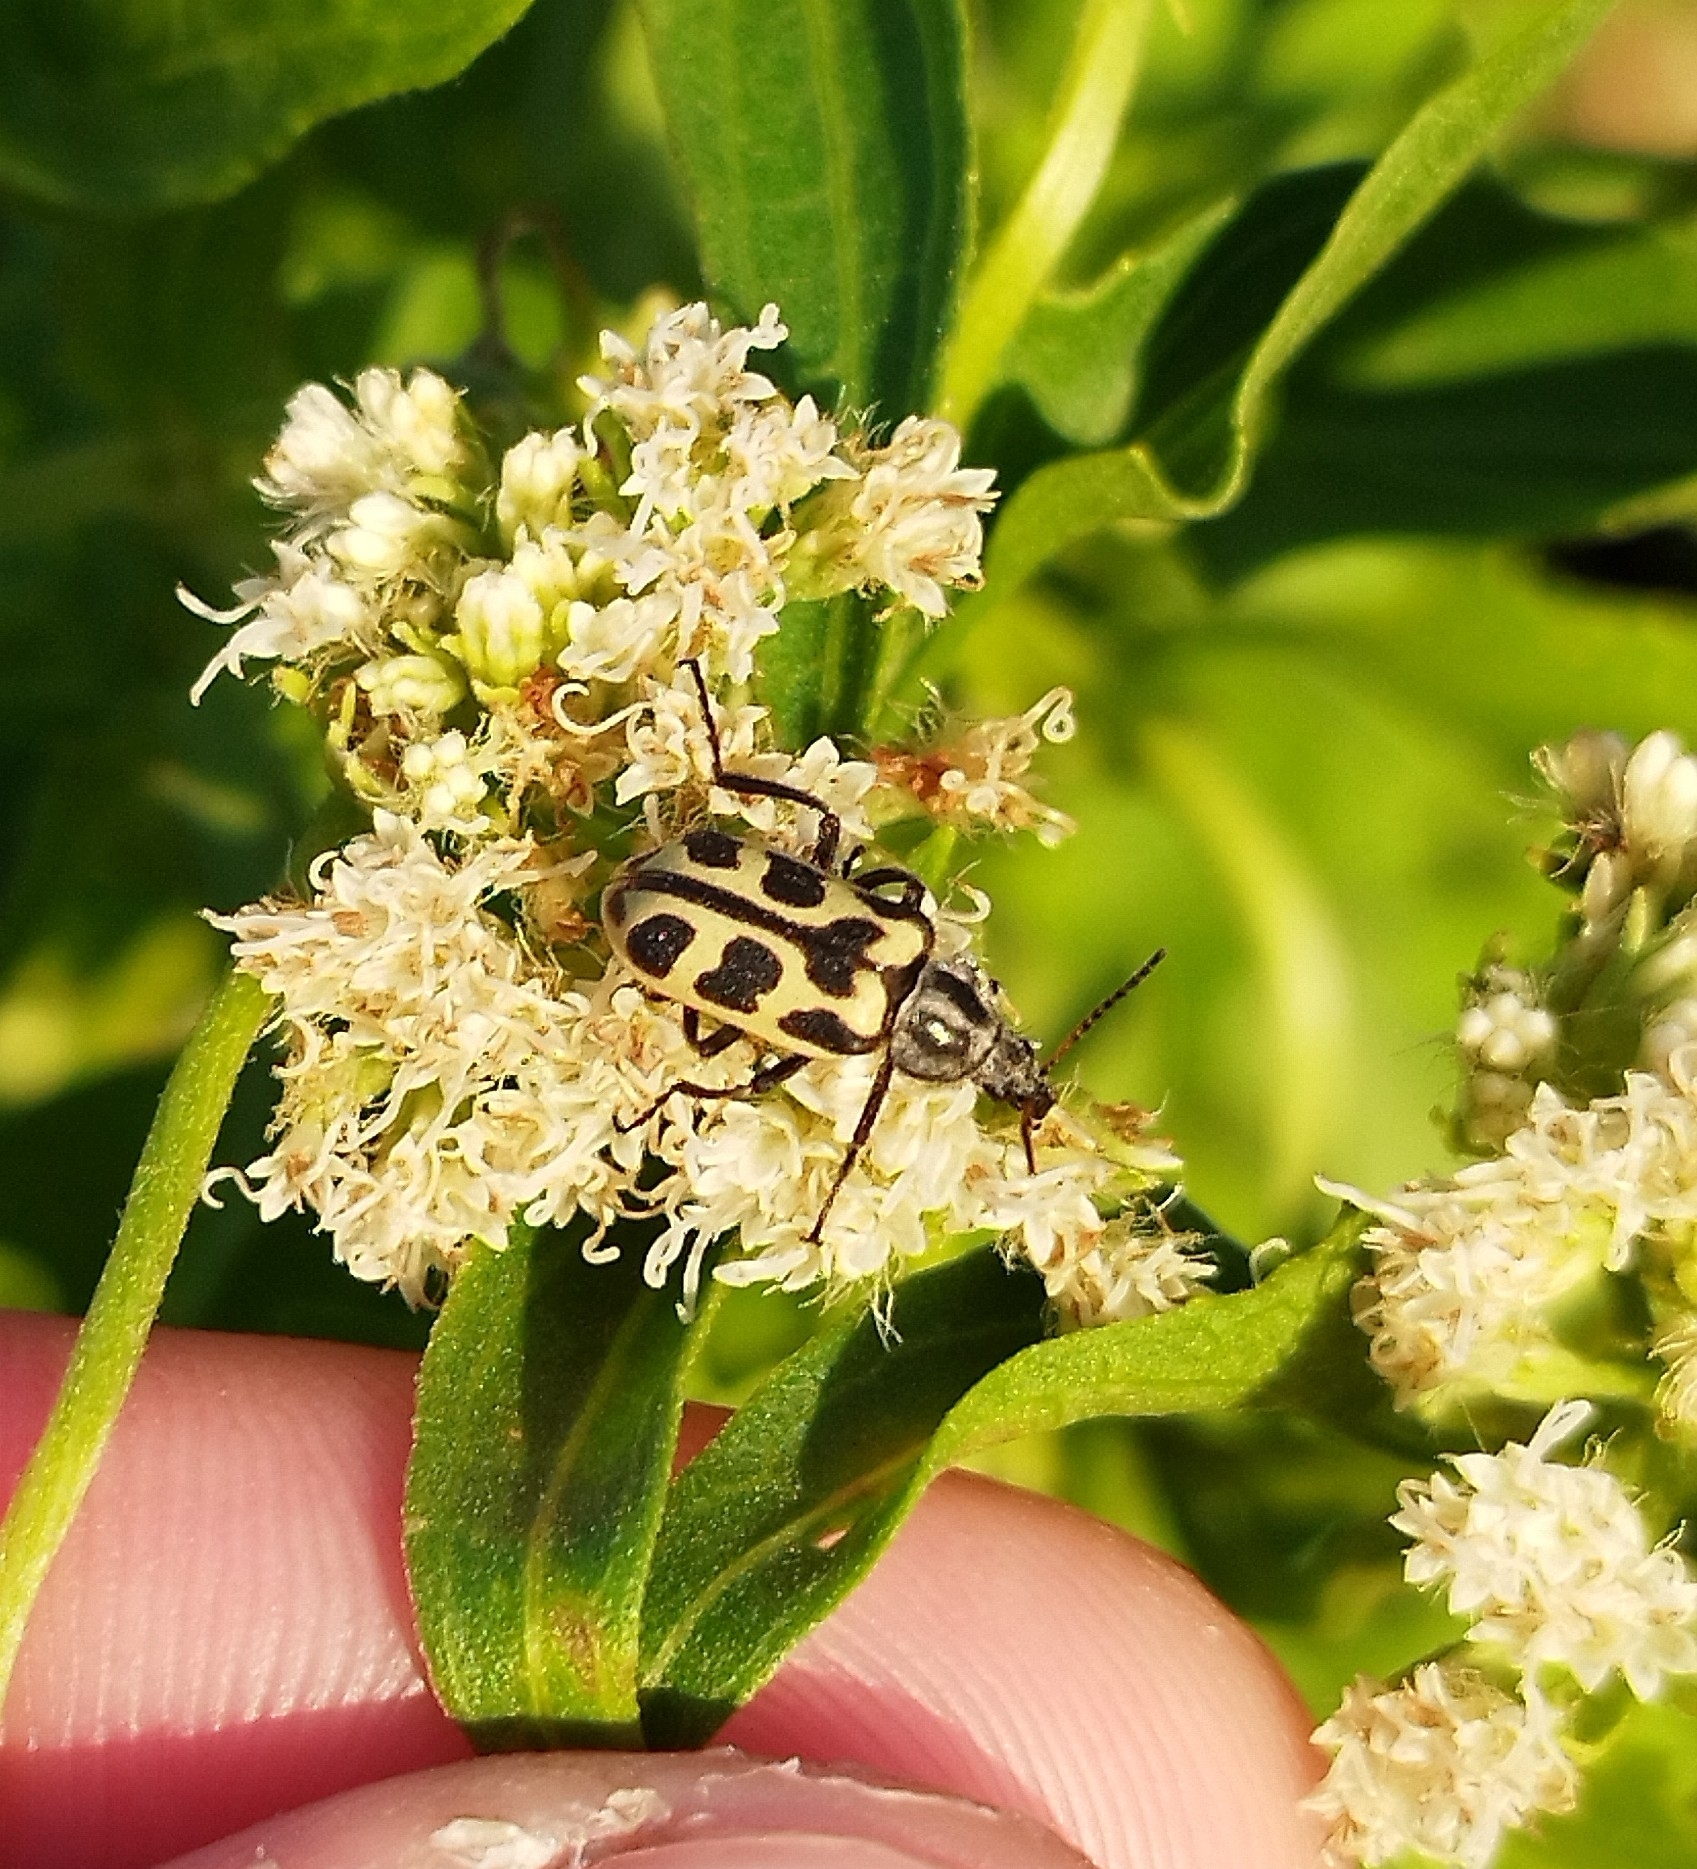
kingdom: Animalia
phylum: Arthropoda
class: Insecta
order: Coleoptera
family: Melyridae
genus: Astylus
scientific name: Astylus atromaculatus
